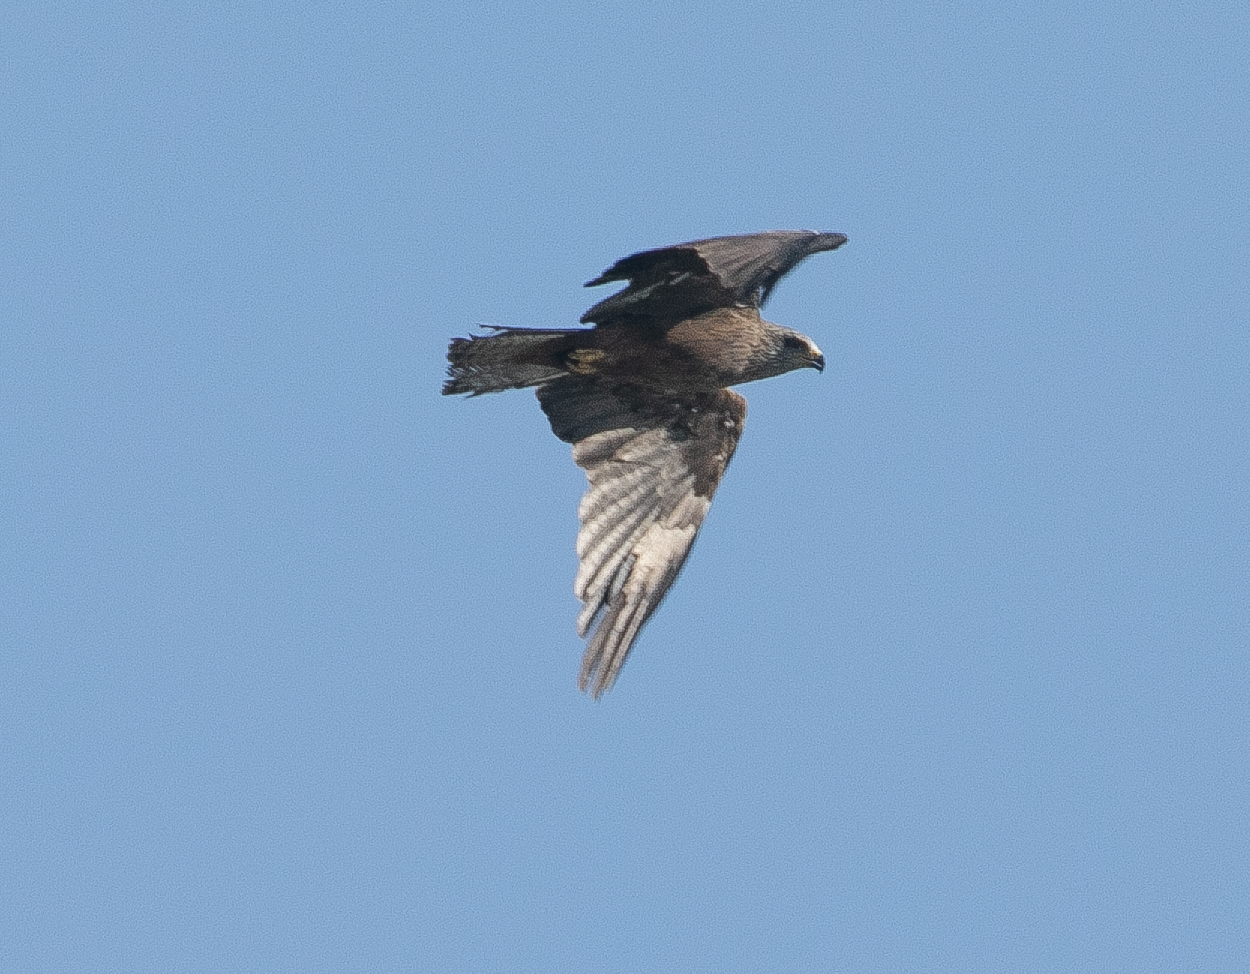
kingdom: Animalia
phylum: Chordata
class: Aves
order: Accipitriformes
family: Accipitridae
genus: Milvus
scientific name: Milvus migrans
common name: Black kite
